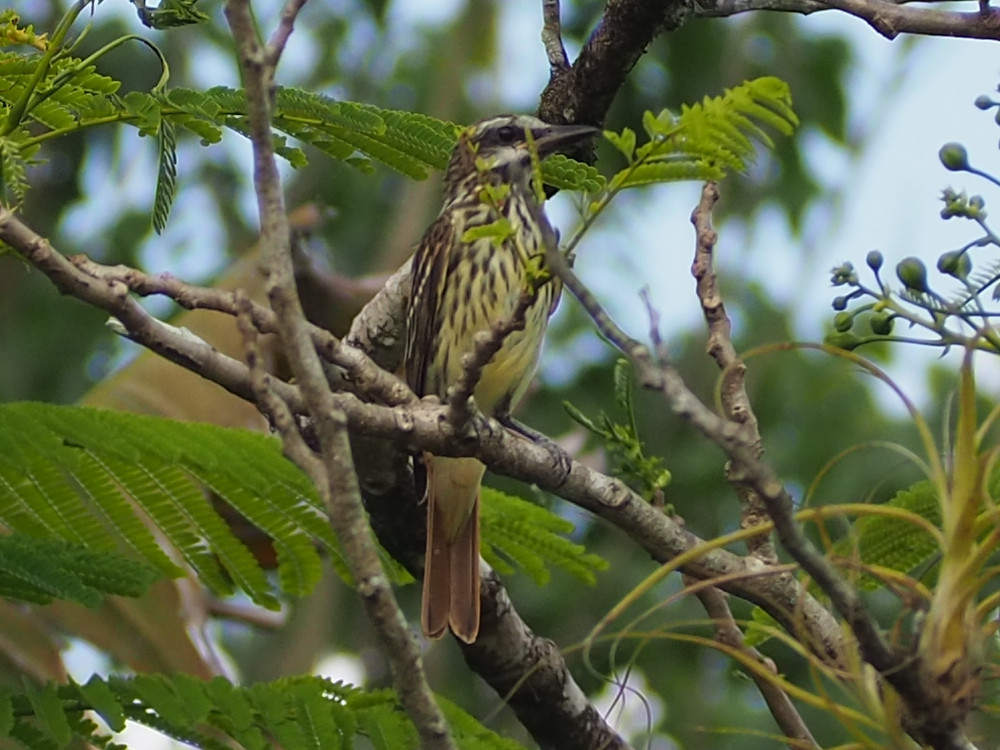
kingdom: Animalia
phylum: Chordata
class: Aves
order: Passeriformes
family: Tyrannidae
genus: Myiodynastes
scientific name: Myiodynastes luteiventris
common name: Sulphur-bellied flycatcher
